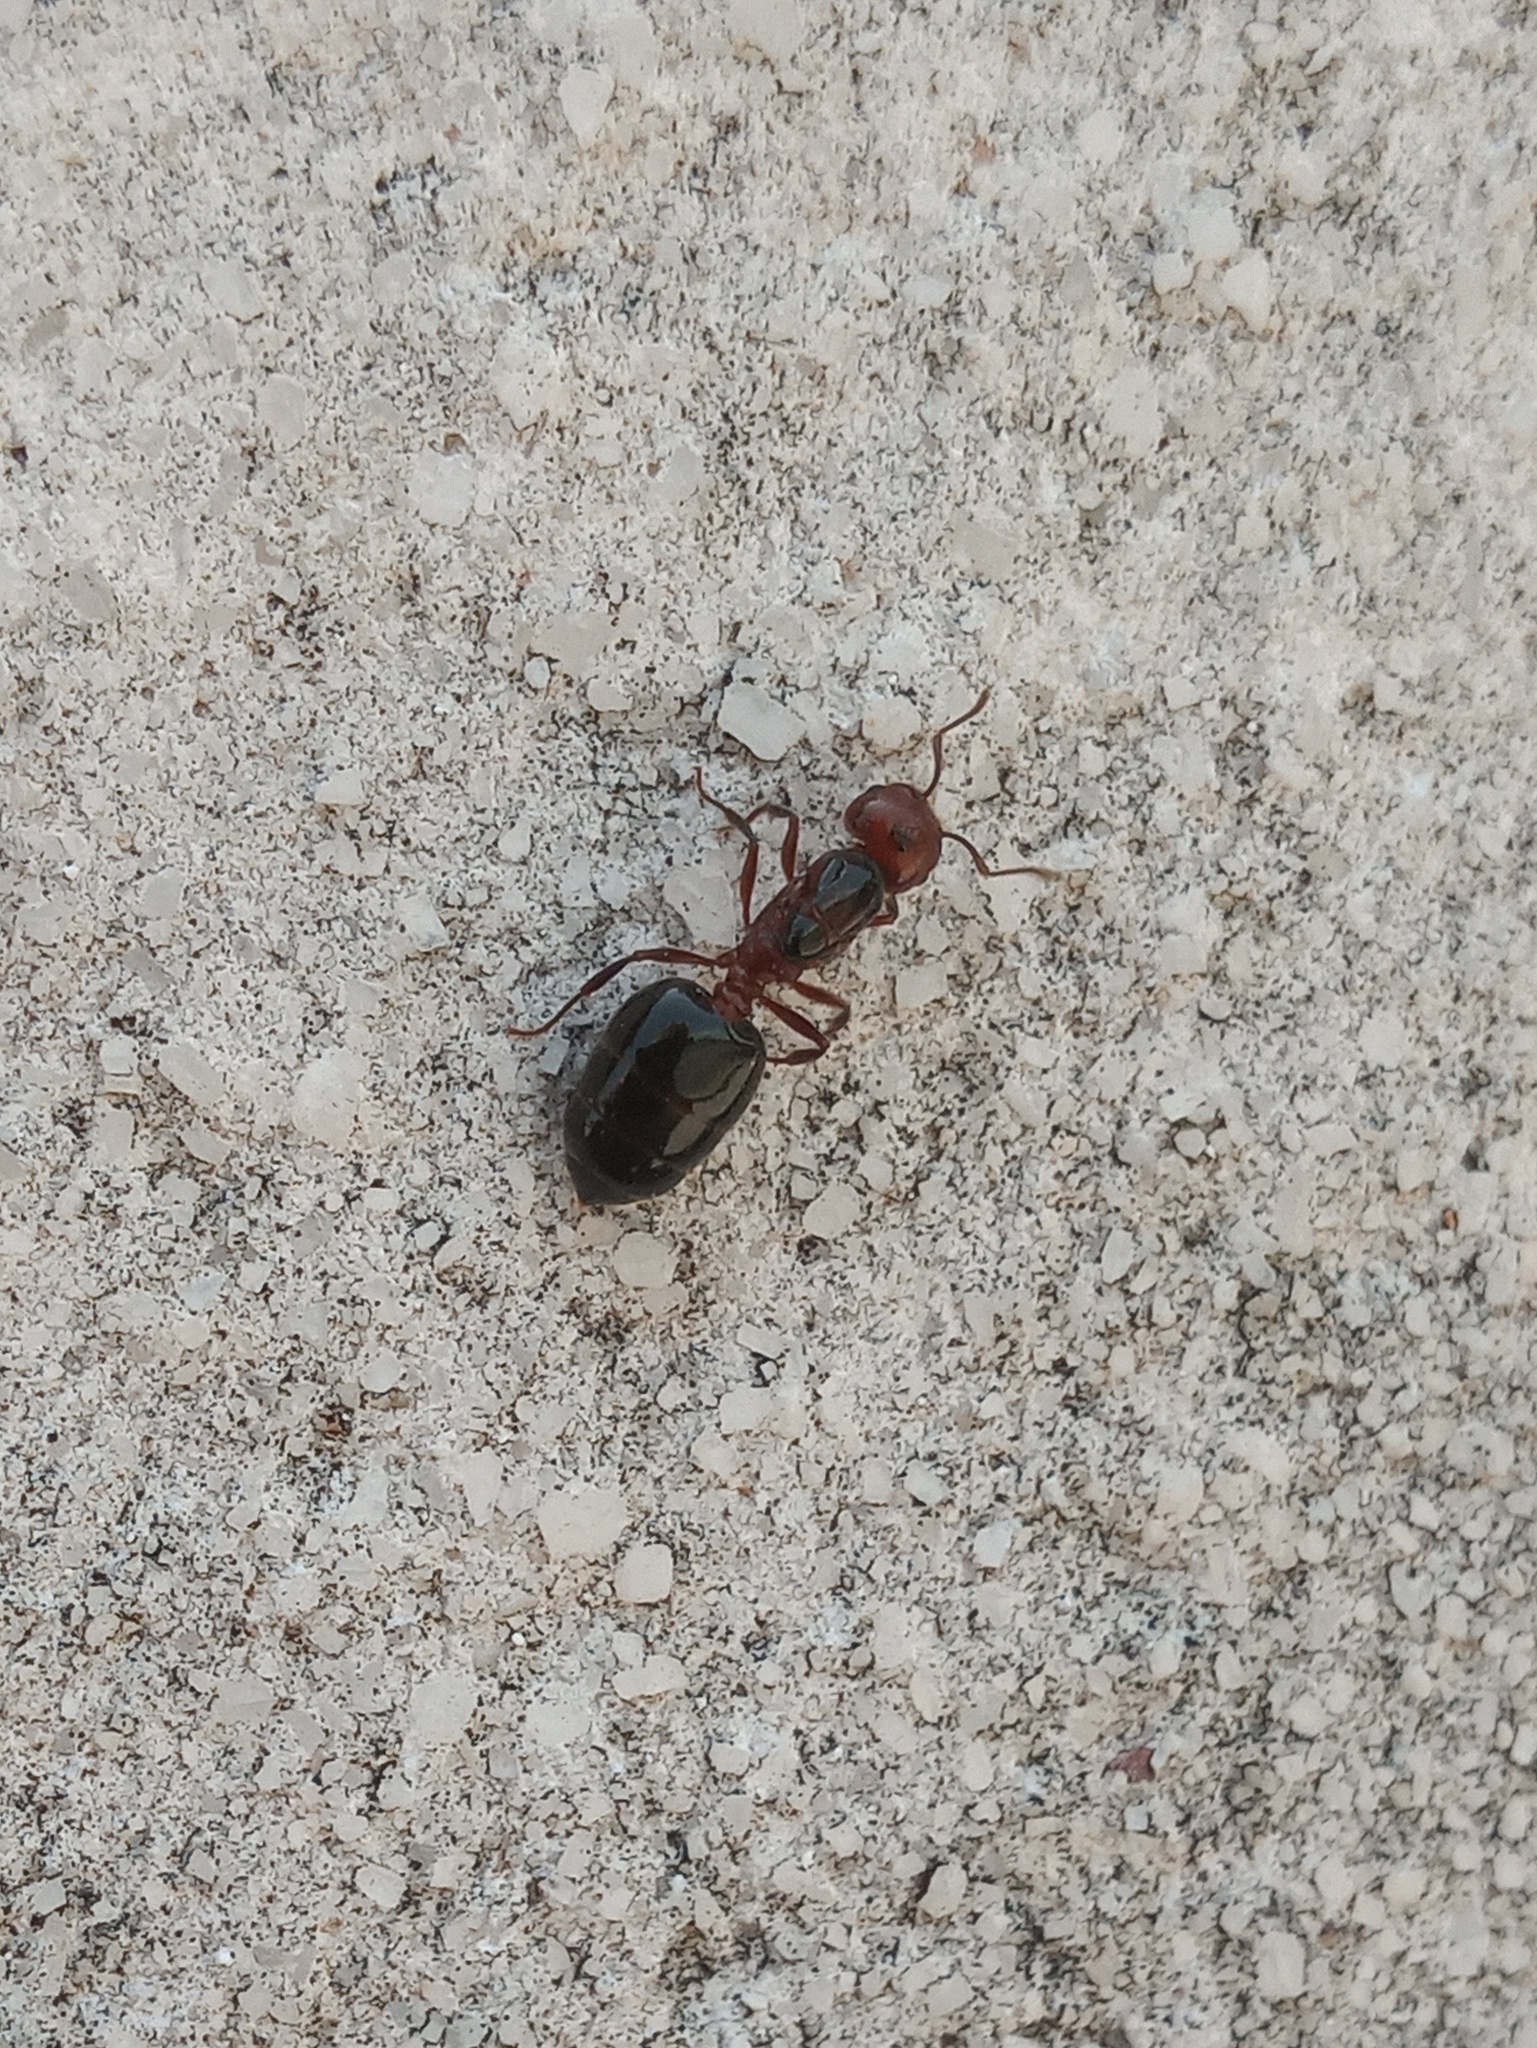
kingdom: Animalia
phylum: Arthropoda
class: Insecta
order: Hymenoptera
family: Formicidae
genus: Crematogaster
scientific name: Crematogaster laeviuscula
